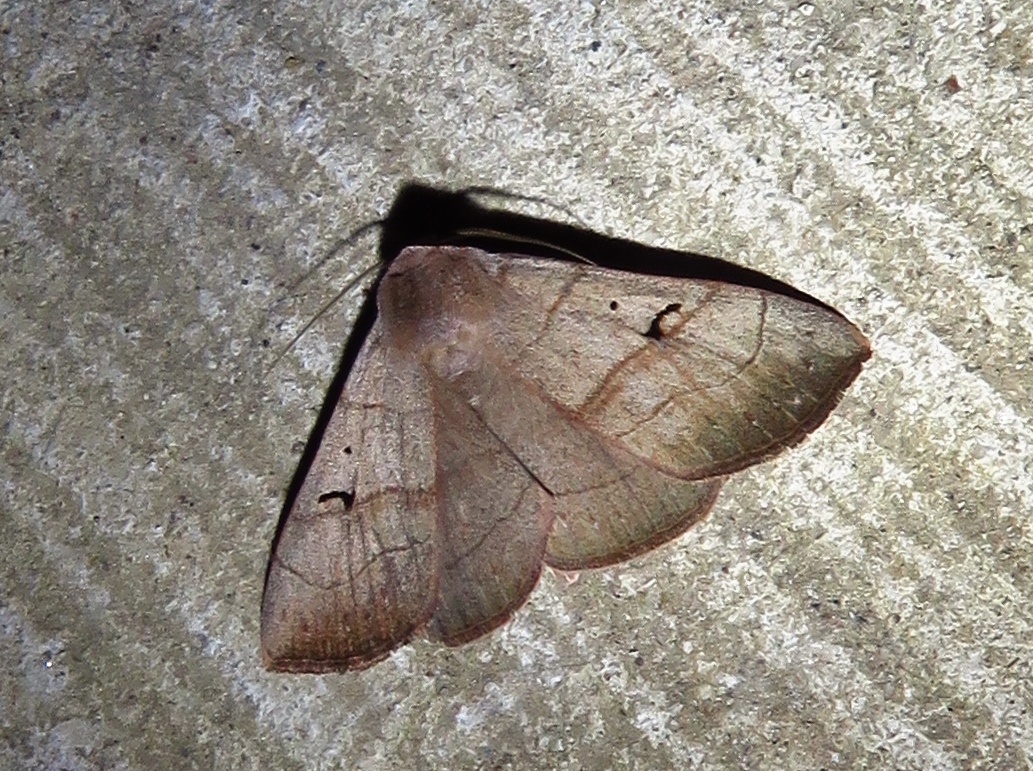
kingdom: Animalia
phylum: Arthropoda
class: Insecta
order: Lepidoptera
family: Erebidae
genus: Panopoda
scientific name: Panopoda carneicosta
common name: Brown panopoda moth
